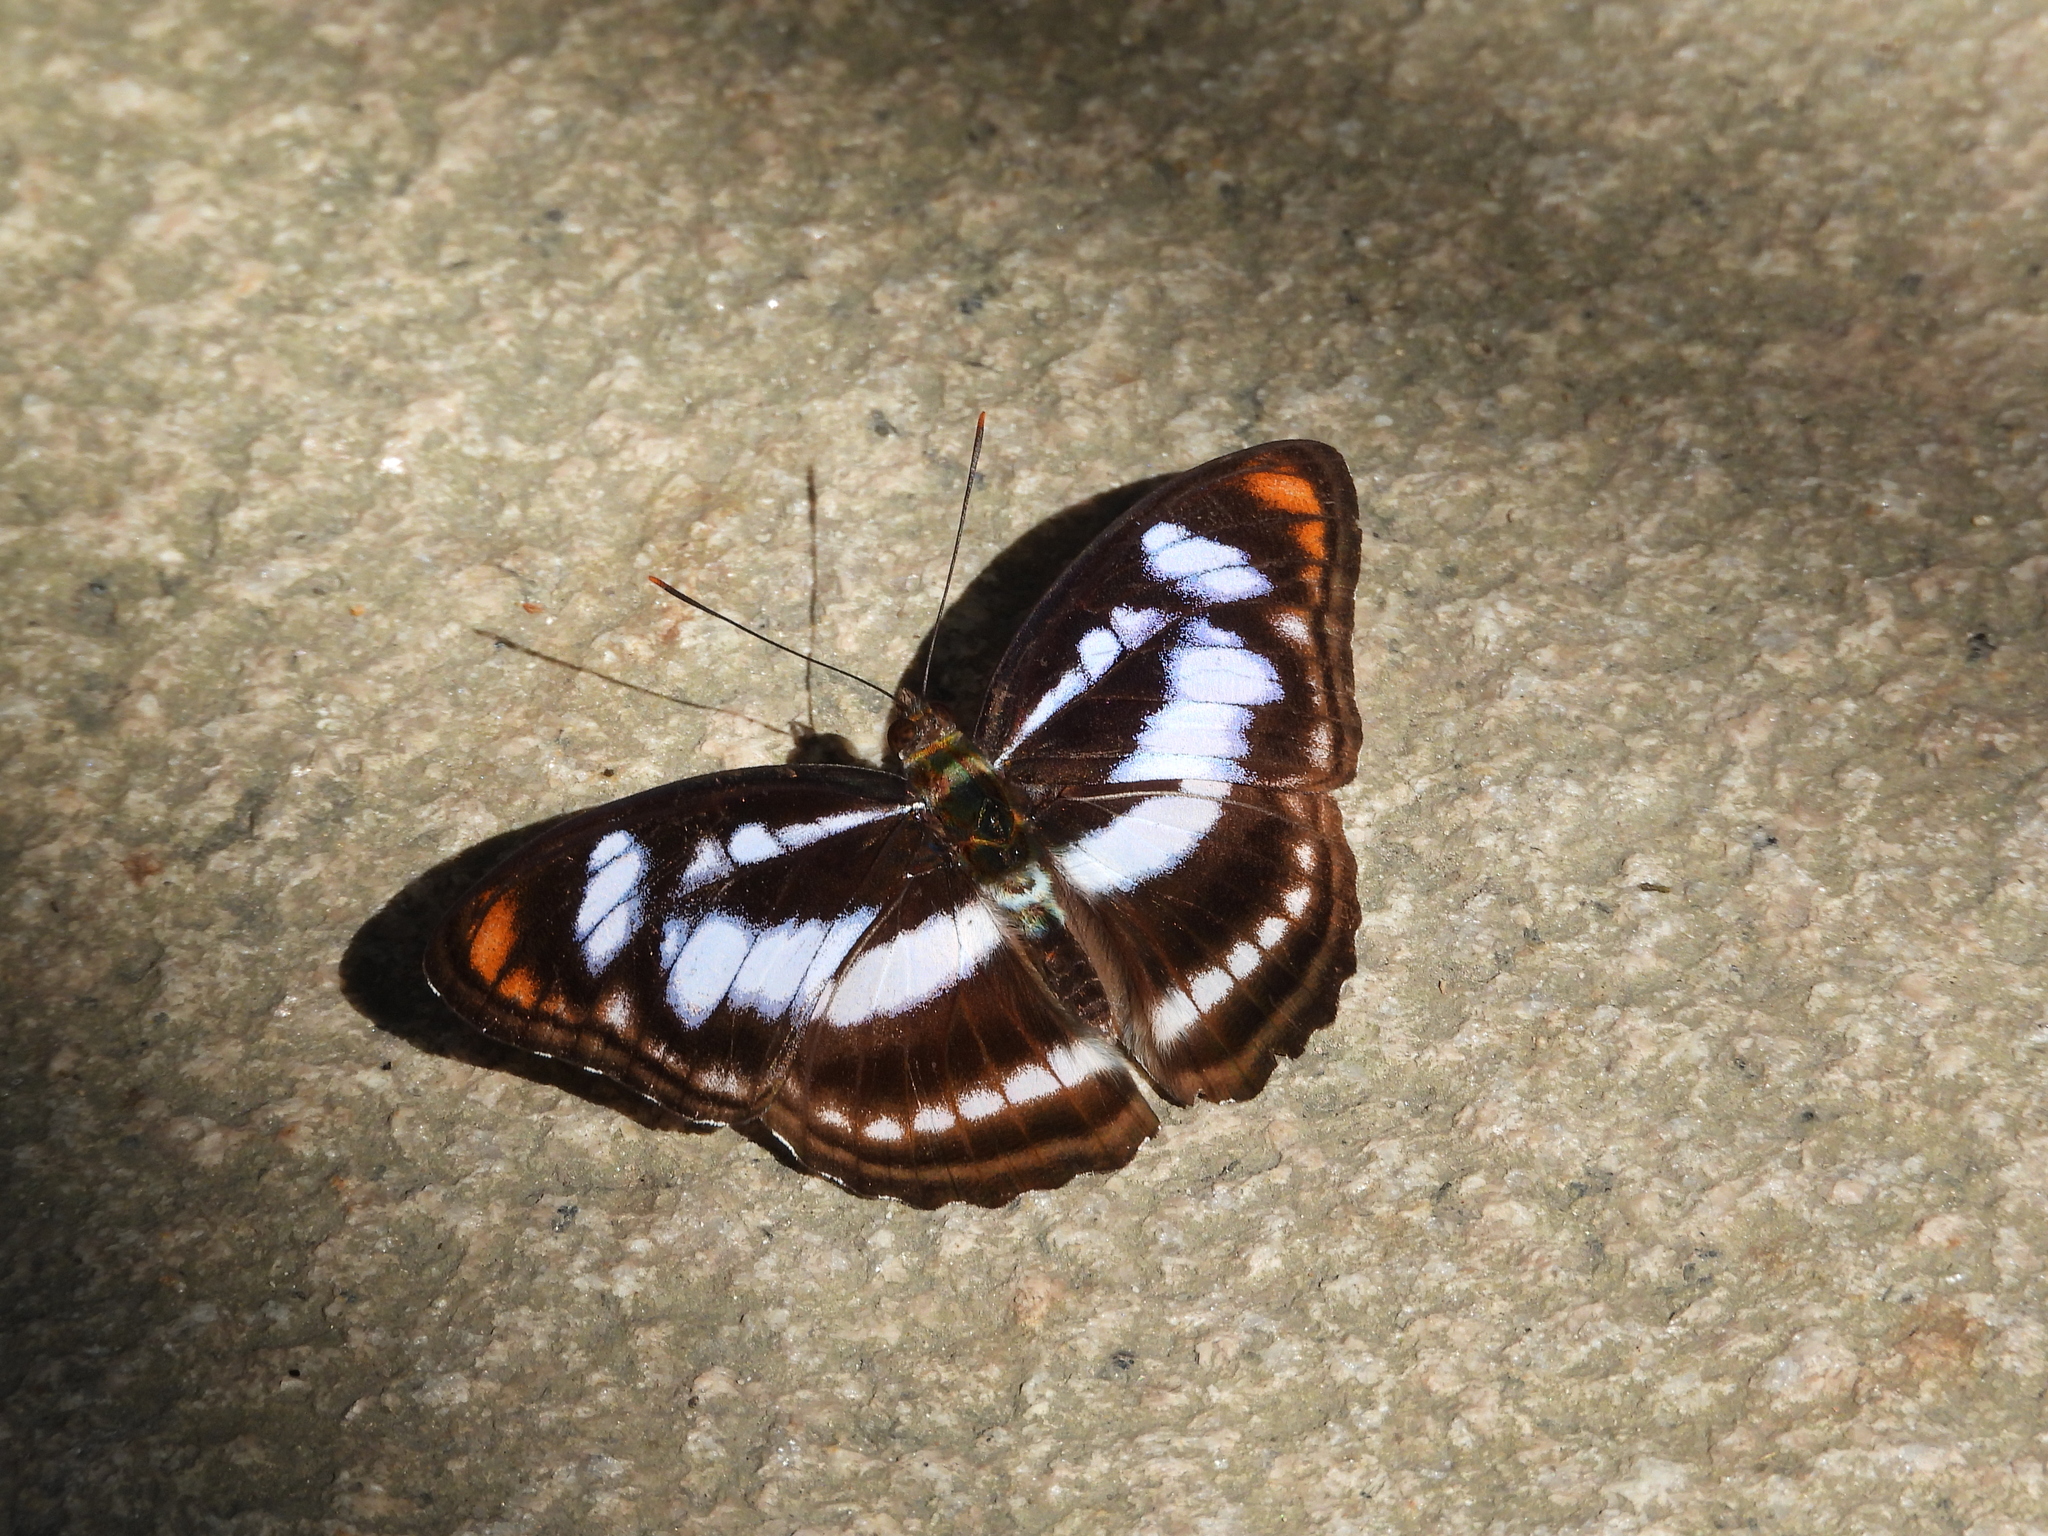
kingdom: Animalia
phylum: Arthropoda
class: Insecta
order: Lepidoptera
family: Nymphalidae
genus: Parathyma
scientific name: Parathyma nefte
